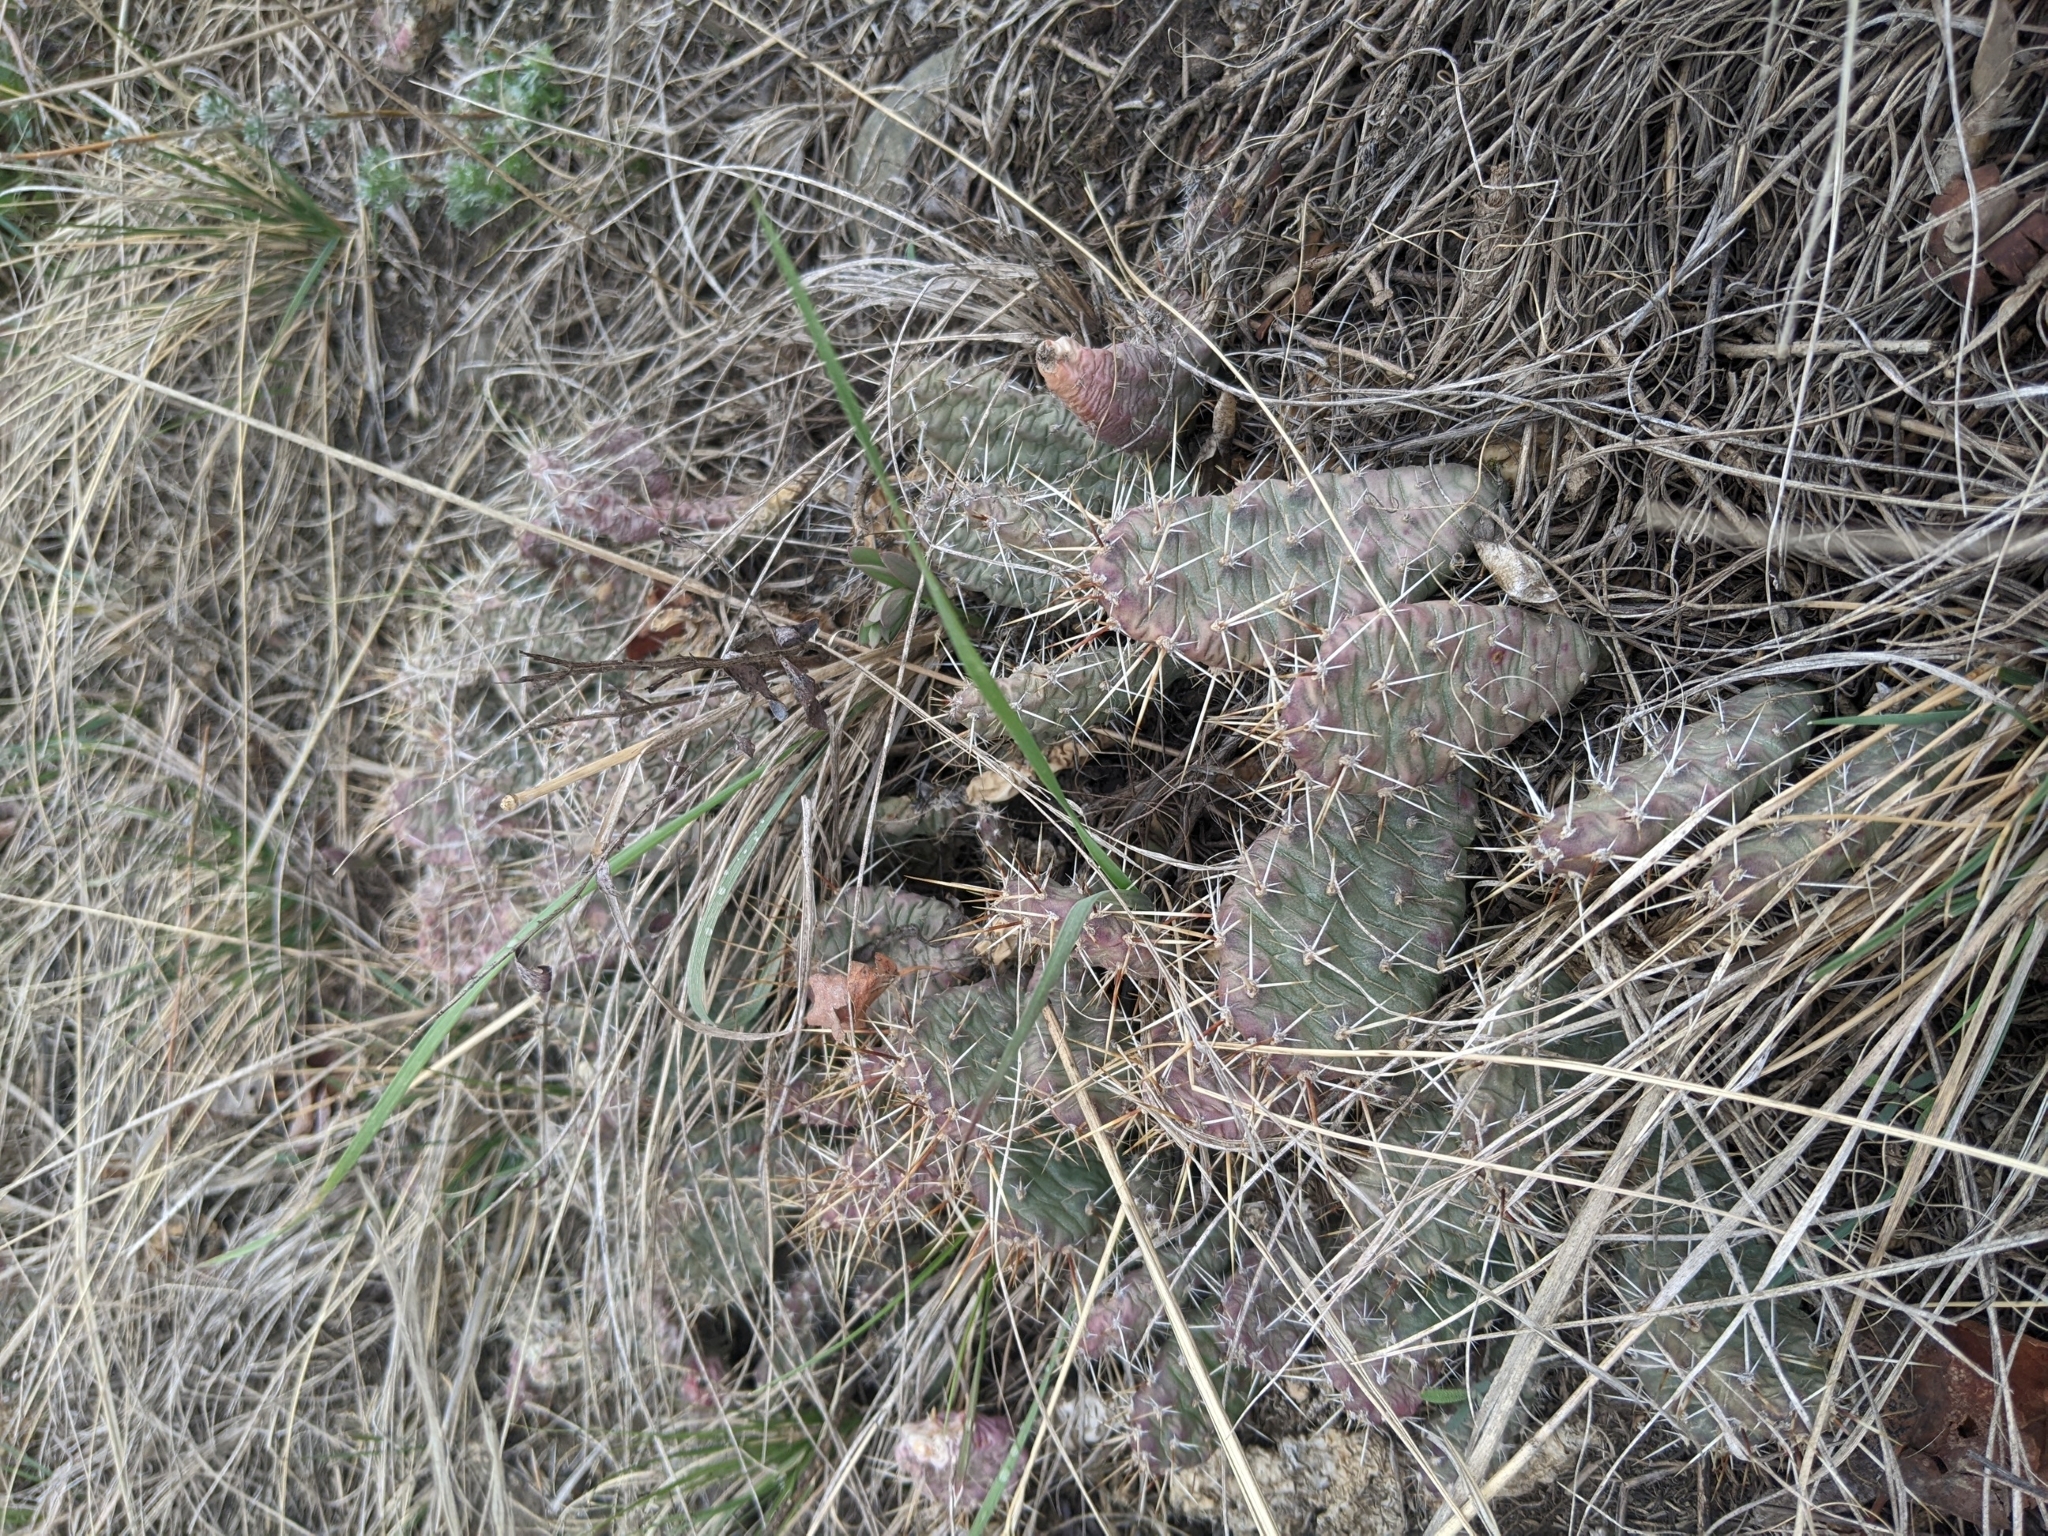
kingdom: Plantae
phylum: Tracheophyta
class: Magnoliopsida
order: Caryophyllales
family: Cactaceae
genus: Opuntia
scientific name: Opuntia fragilis
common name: Brittle cactus
